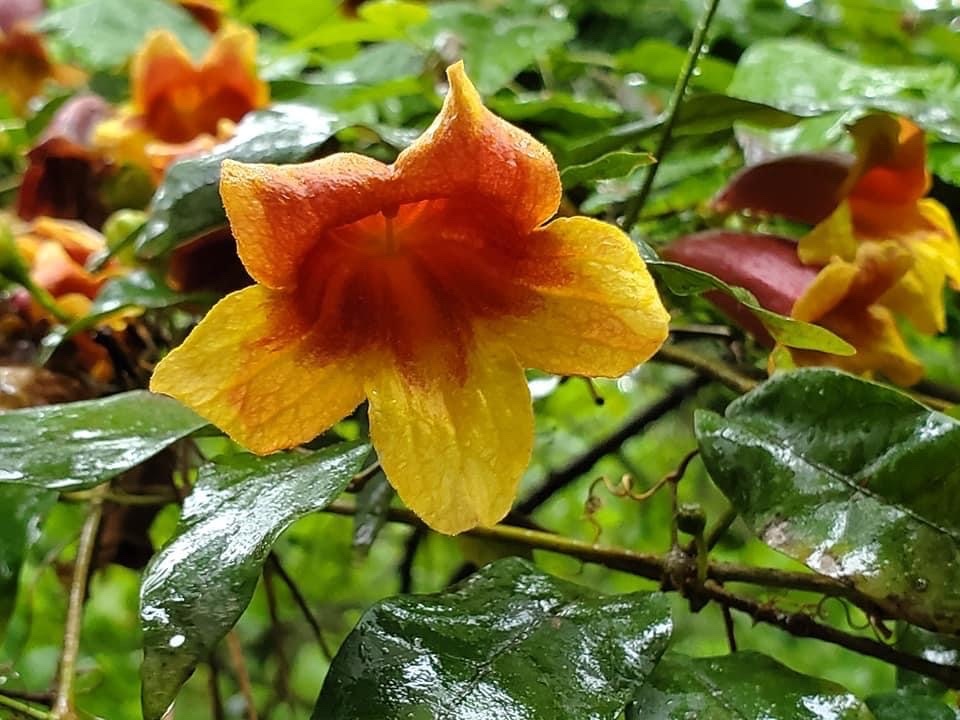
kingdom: Plantae
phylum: Tracheophyta
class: Magnoliopsida
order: Lamiales
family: Bignoniaceae
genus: Bignonia
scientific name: Bignonia capreolata
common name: Crossvine
